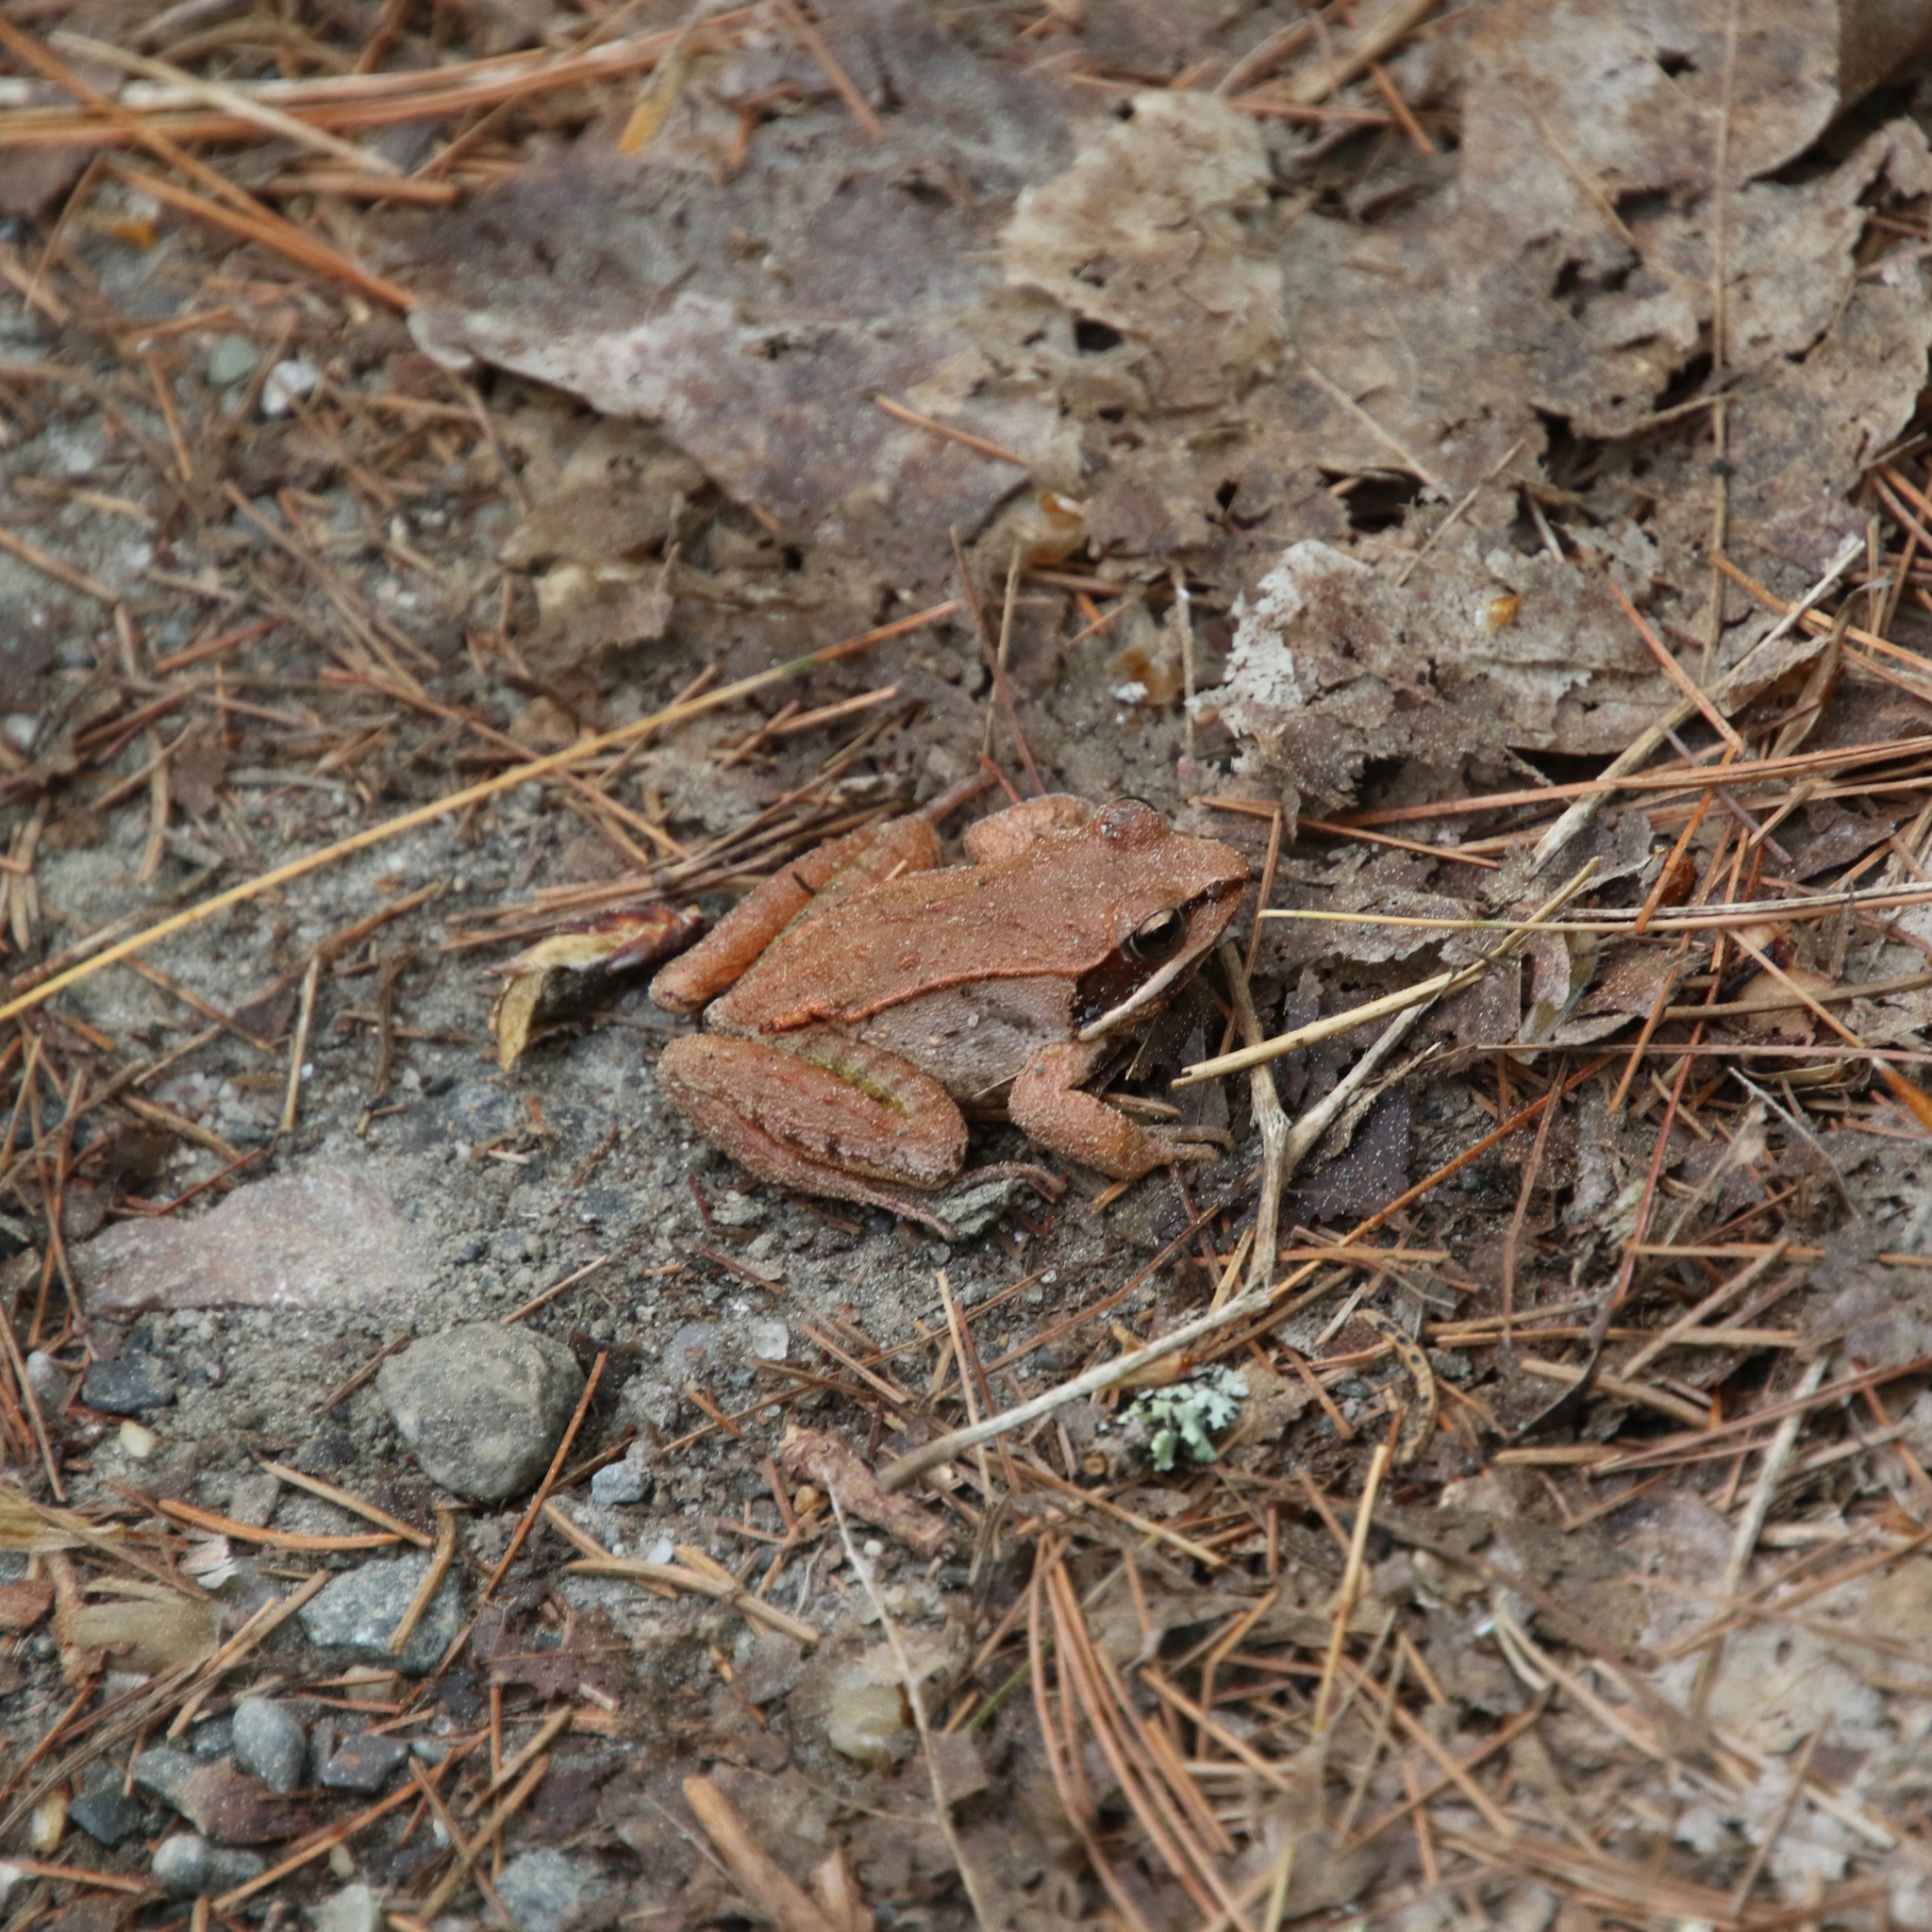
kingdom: Animalia
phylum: Chordata
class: Amphibia
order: Anura
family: Ranidae
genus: Lithobates
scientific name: Lithobates sylvaticus
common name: Wood frog
